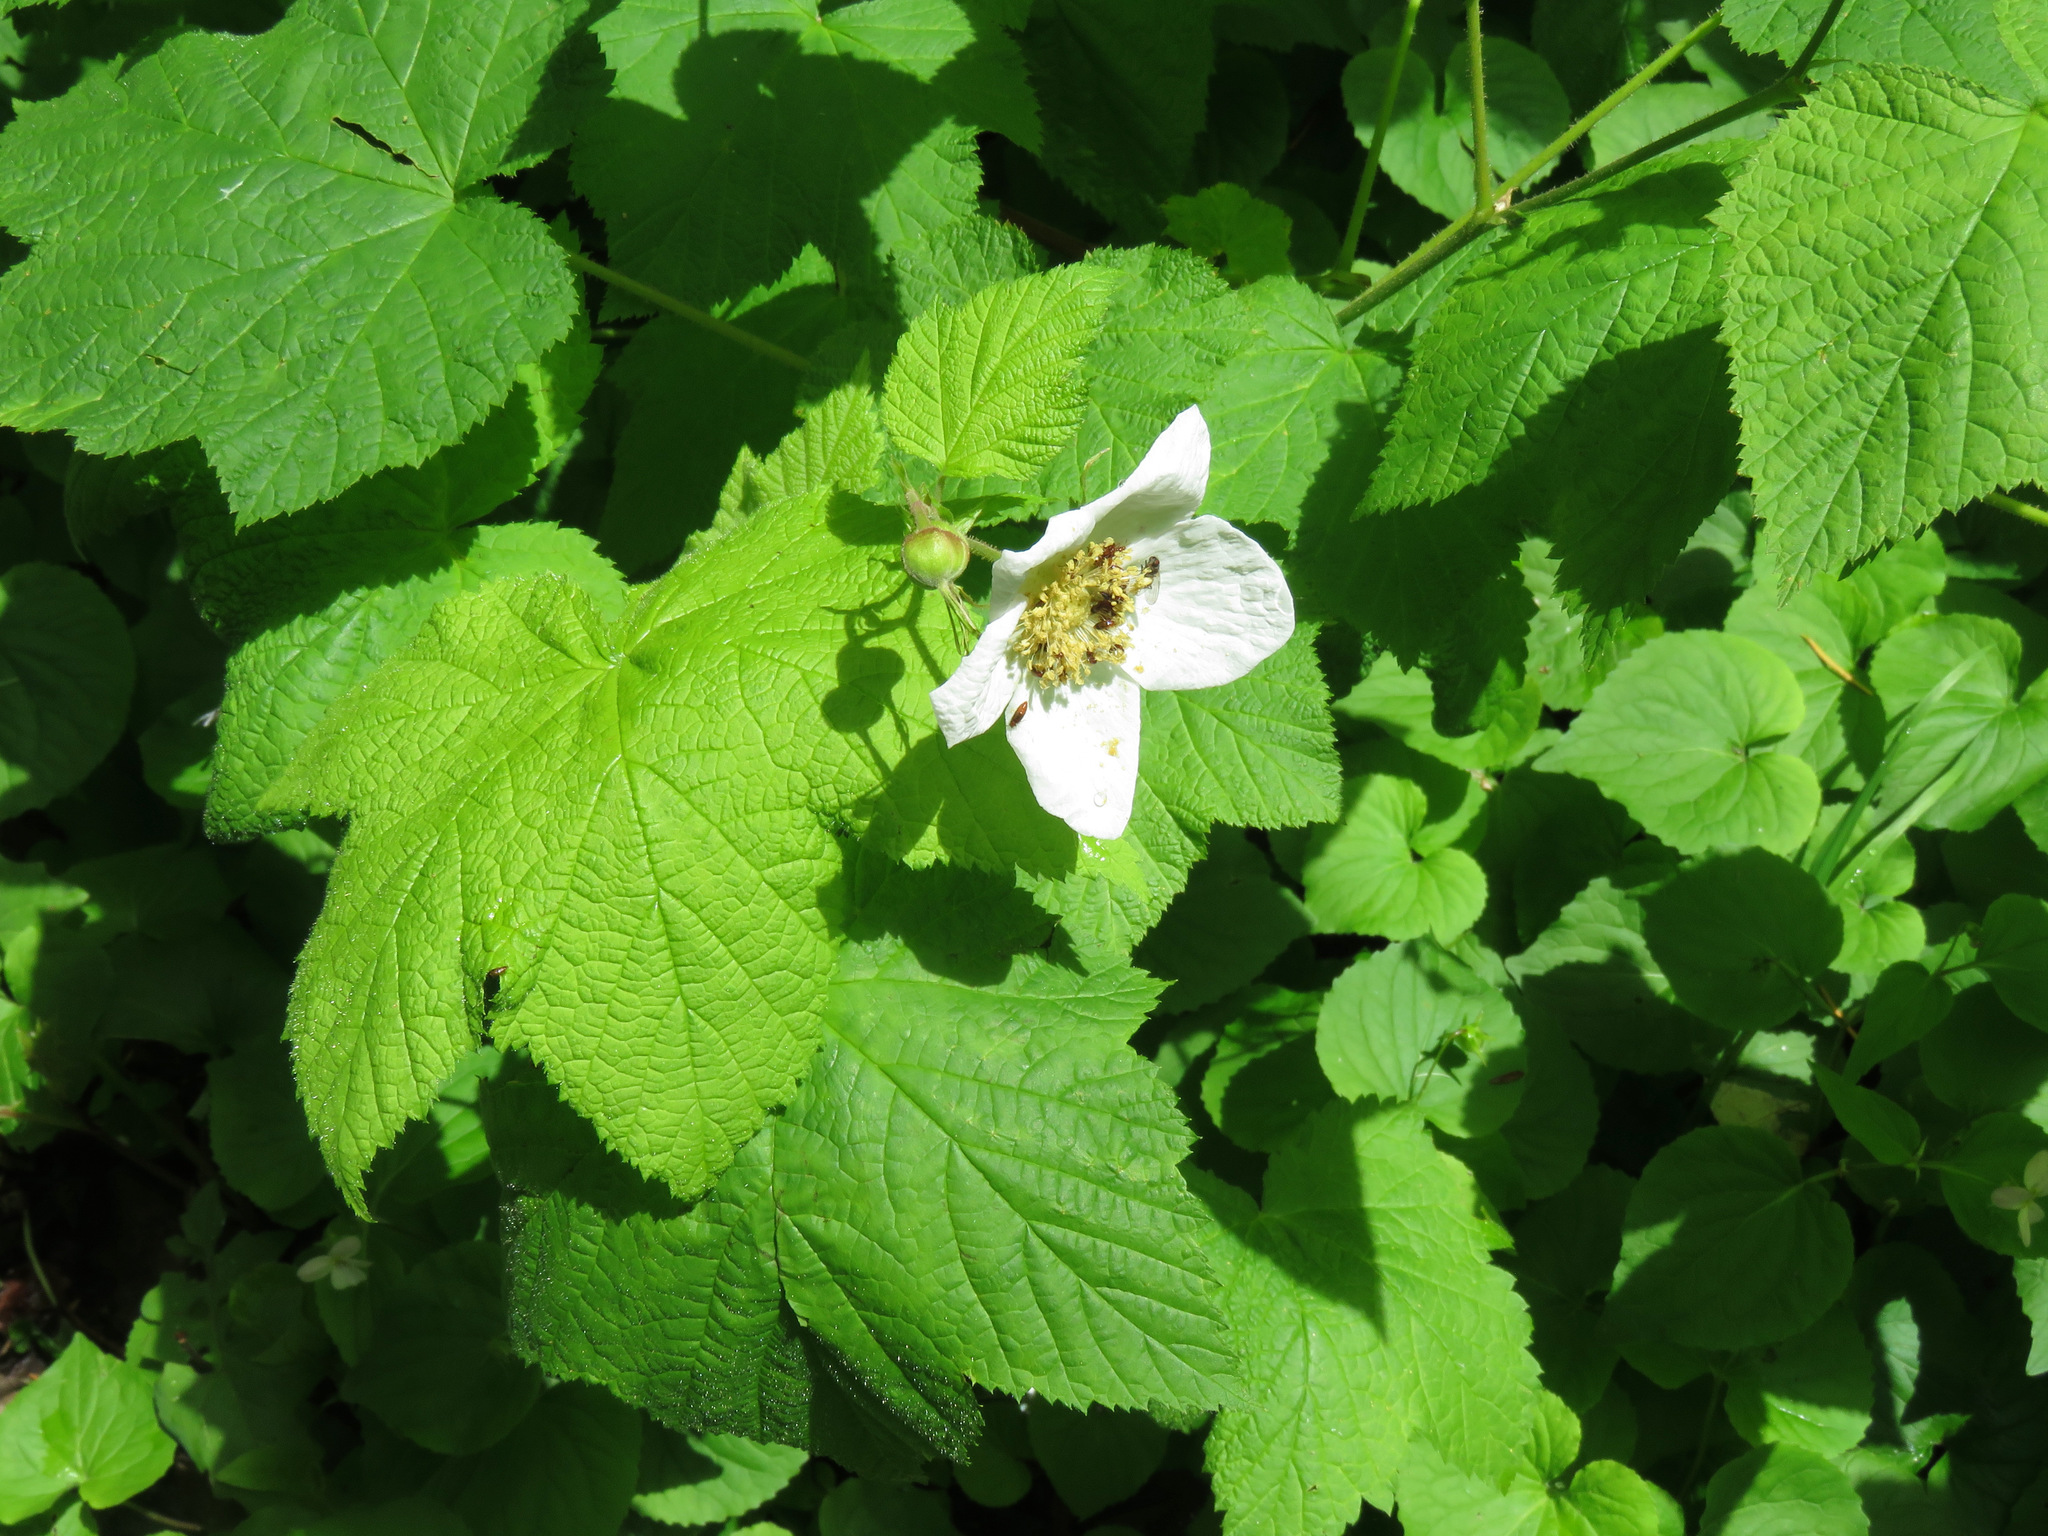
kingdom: Plantae
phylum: Tracheophyta
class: Magnoliopsida
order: Rosales
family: Rosaceae
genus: Rubus
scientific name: Rubus parviflorus
